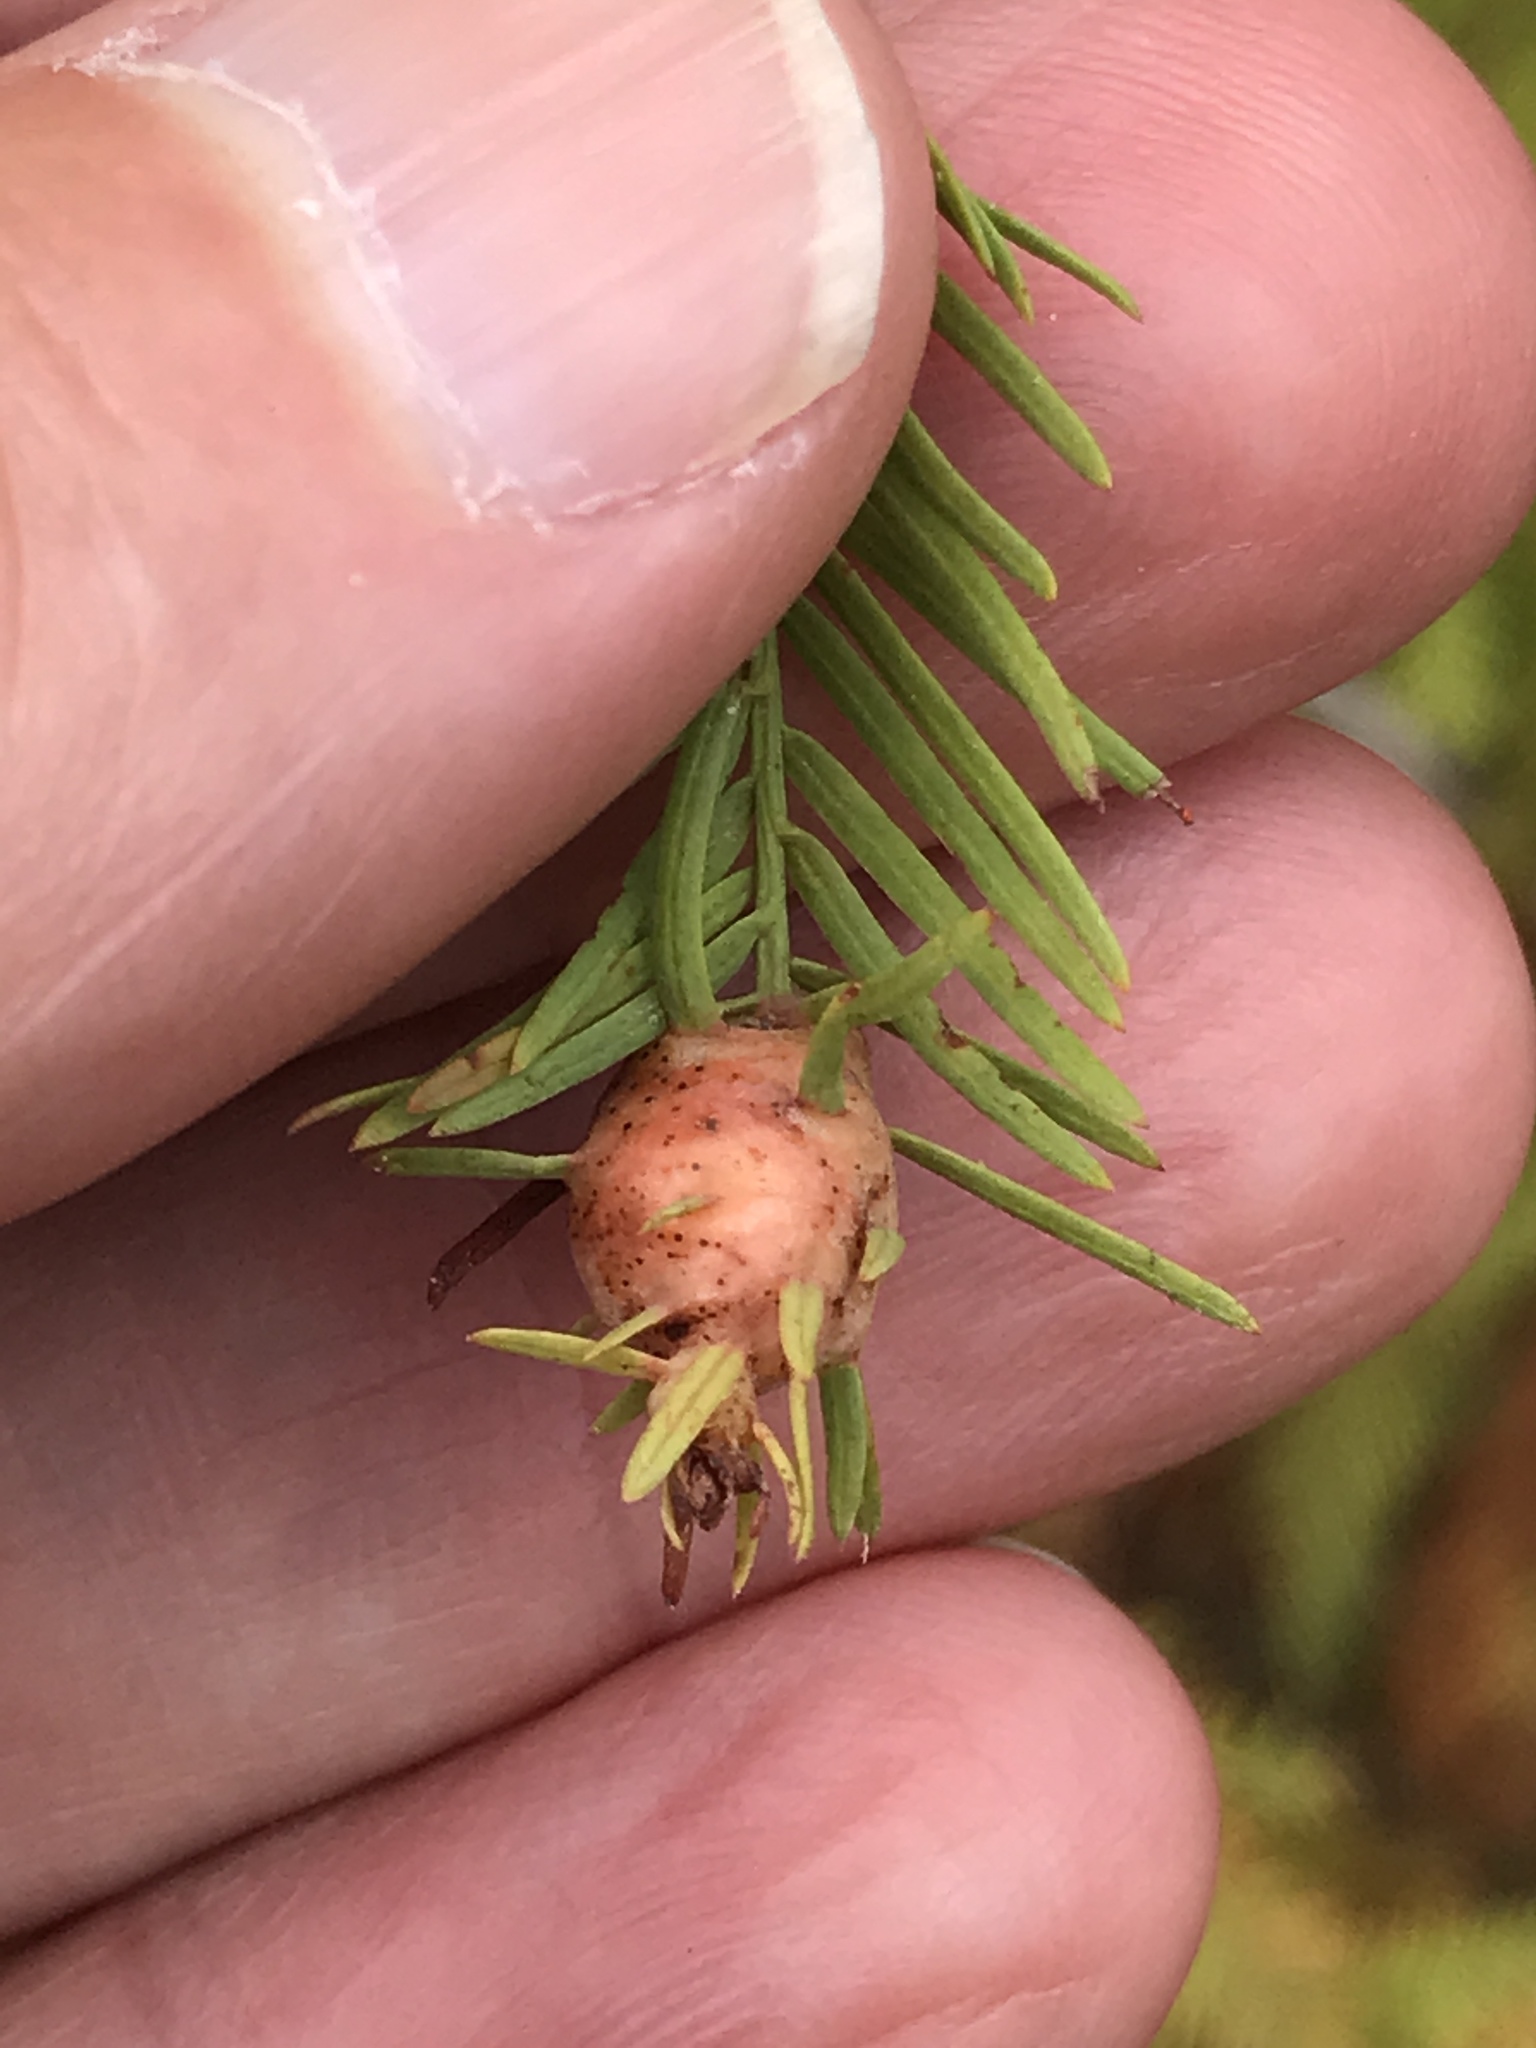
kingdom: Plantae
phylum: Tracheophyta
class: Pinopsida
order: Pinales
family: Cupressaceae
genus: Taxodium
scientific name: Taxodium distichum
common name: Bald cypress
